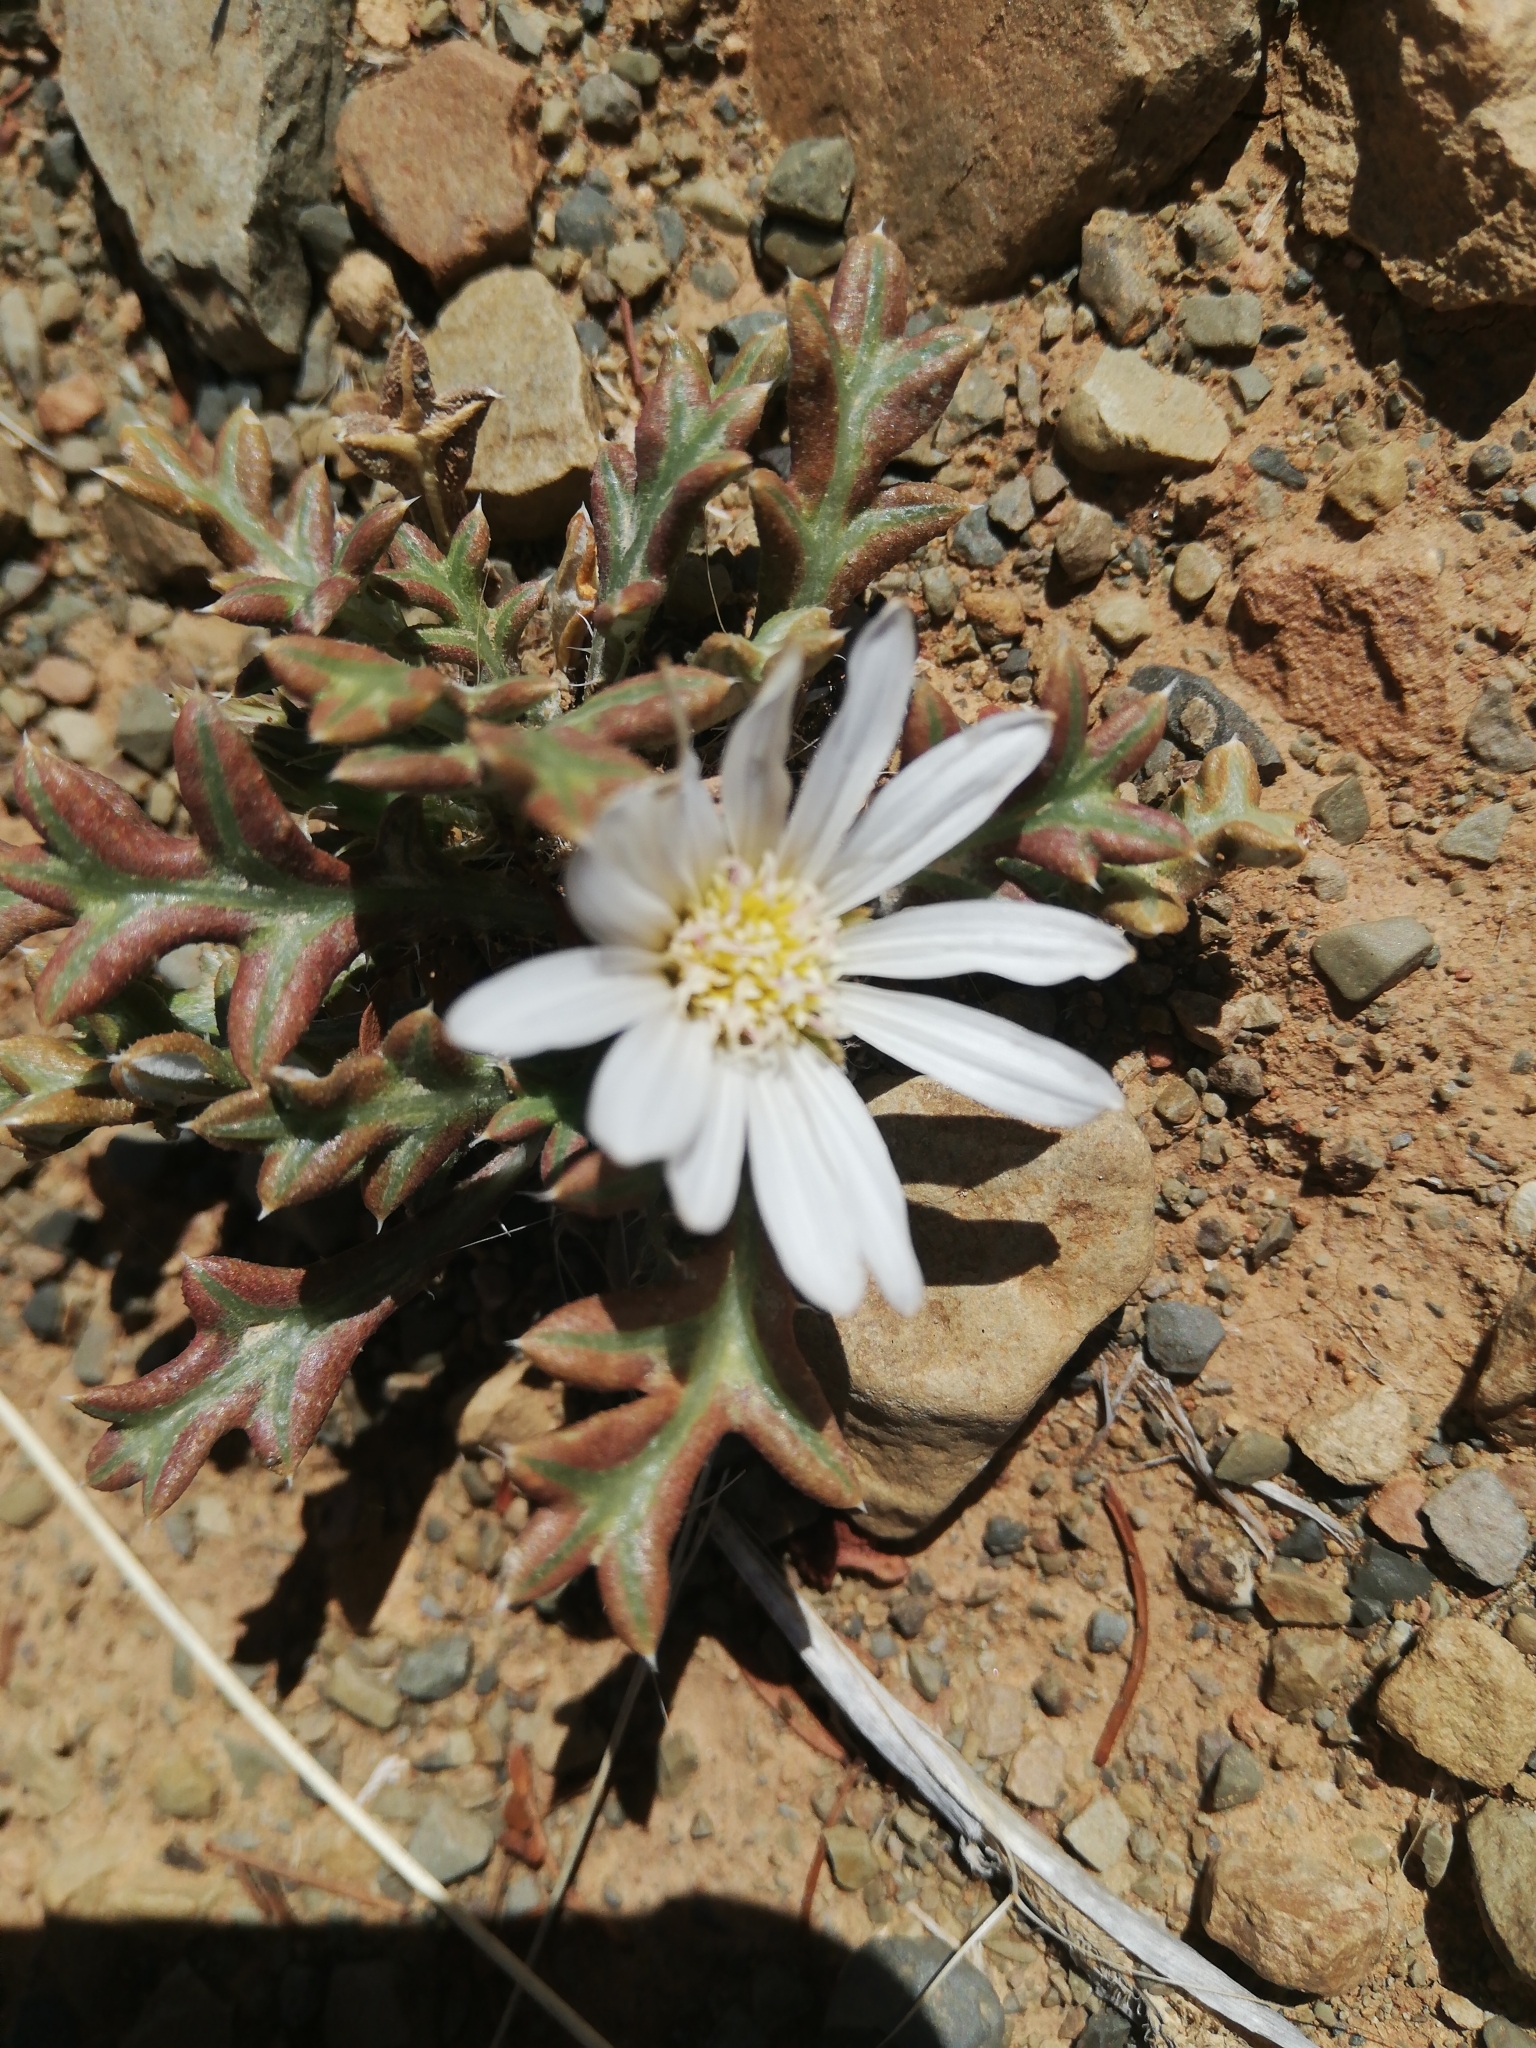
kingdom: Plantae
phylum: Tracheophyta
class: Magnoliopsida
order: Asterales
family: Asteraceae
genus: Gazania
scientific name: Gazania jurineifolia
